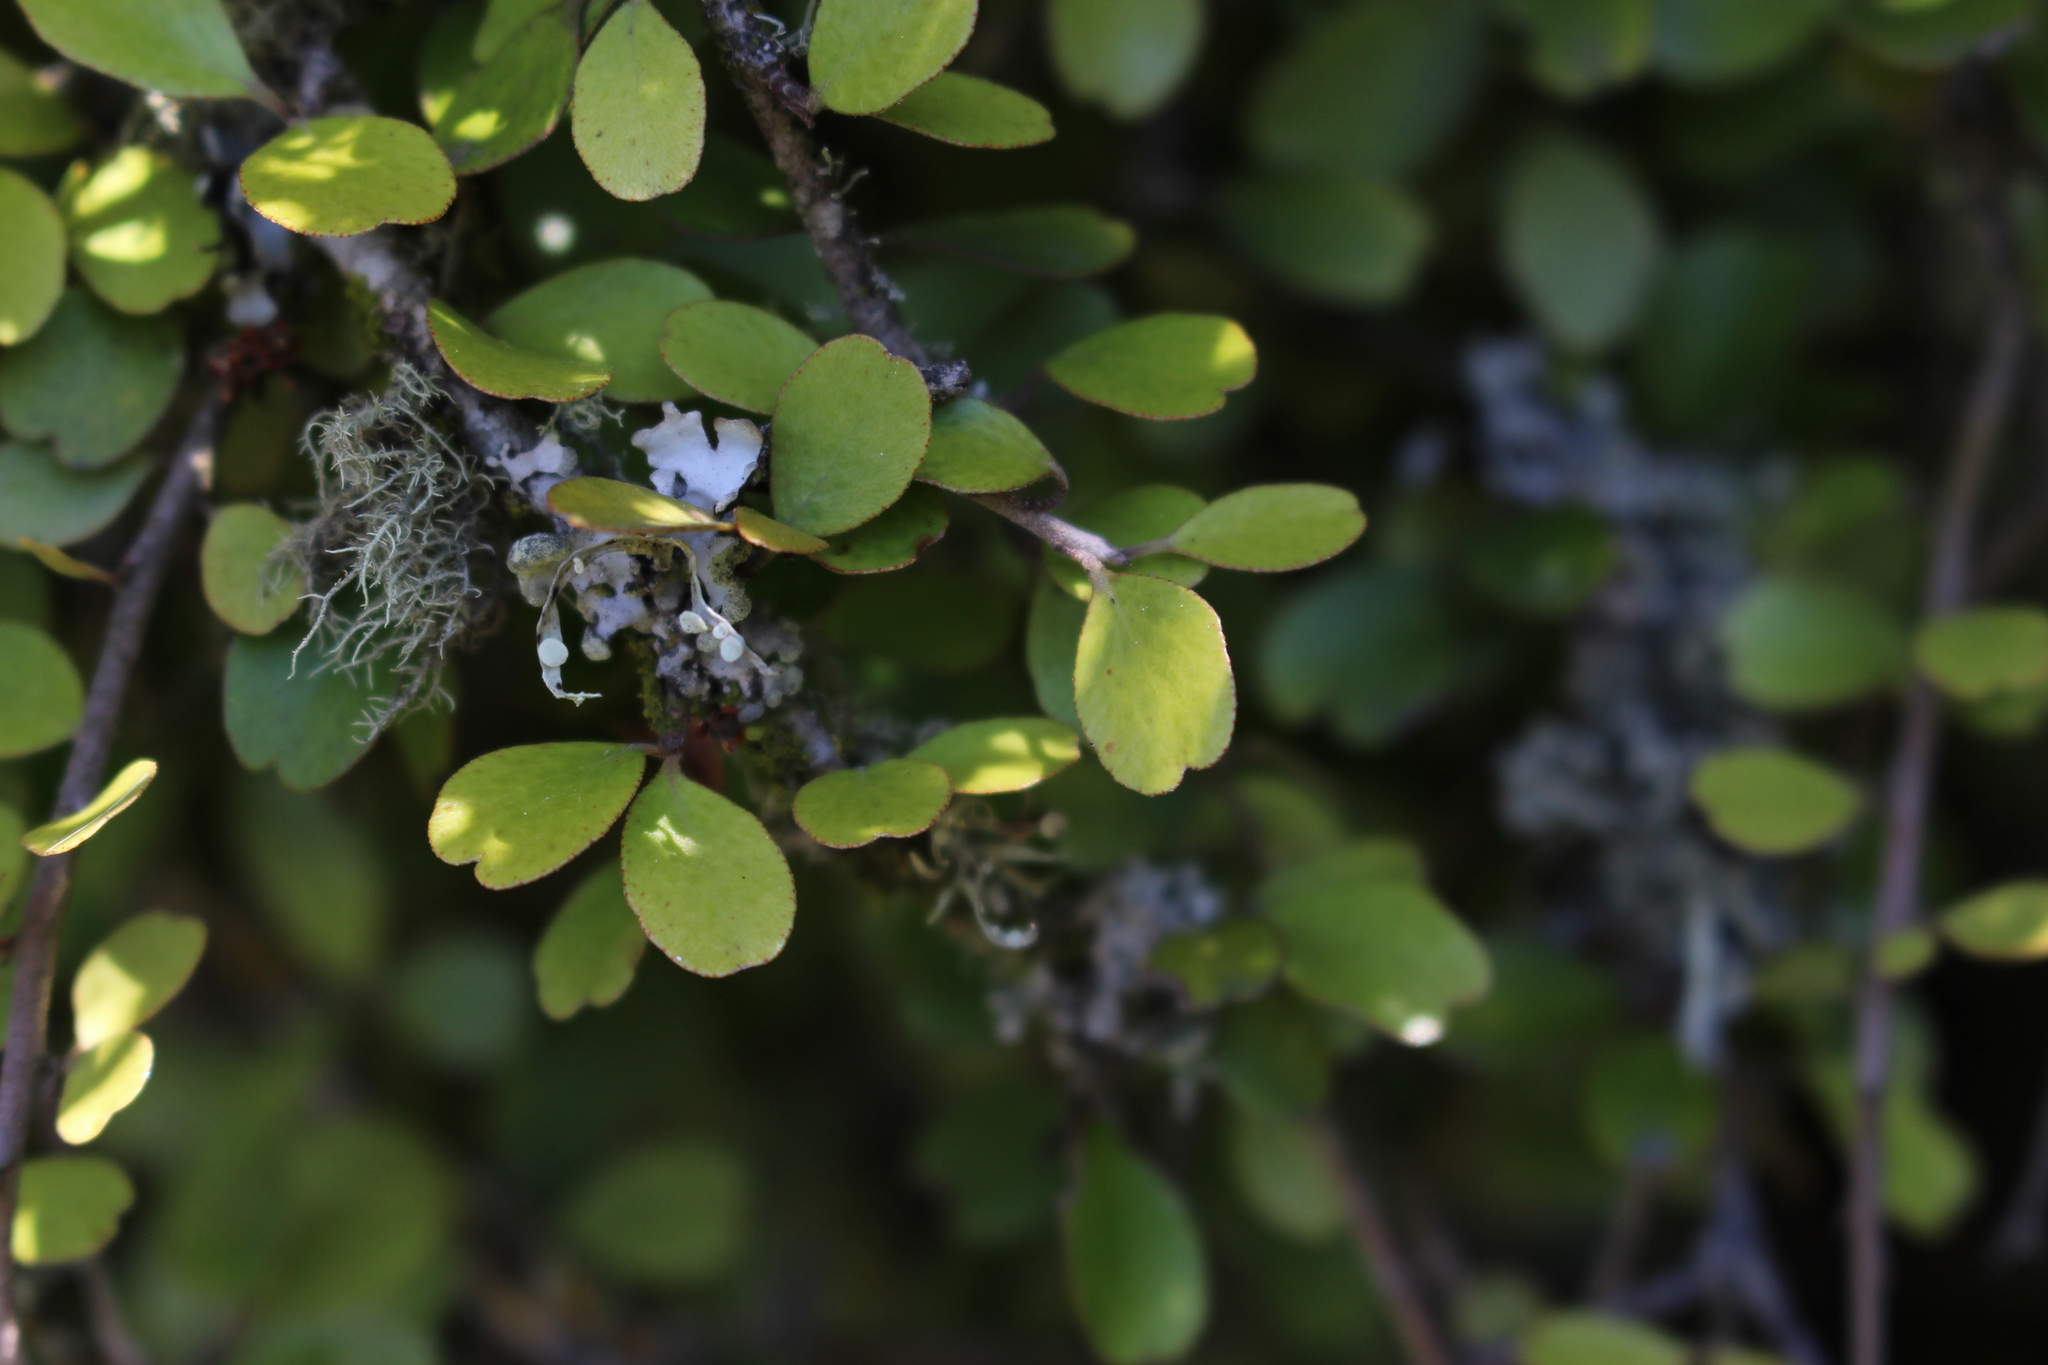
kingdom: Plantae
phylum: Tracheophyta
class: Magnoliopsida
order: Ericales
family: Primulaceae
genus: Myrsine
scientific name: Myrsine divaricata
